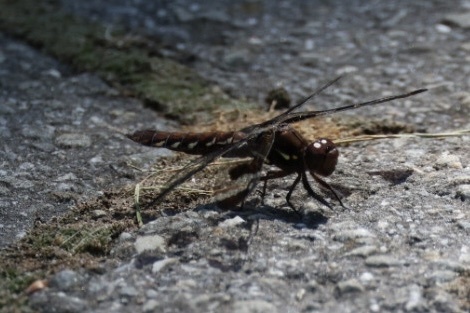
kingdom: Animalia
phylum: Arthropoda
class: Insecta
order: Odonata
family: Libellulidae
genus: Plathemis
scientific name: Plathemis lydia
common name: Common whitetail
